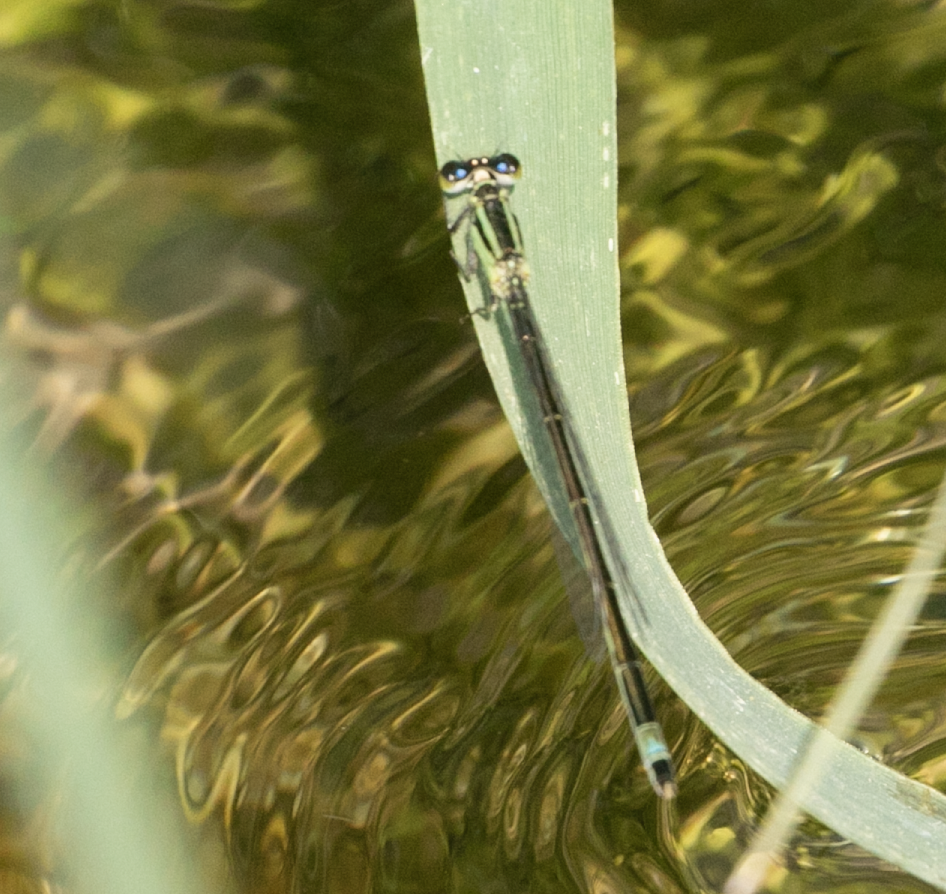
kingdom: Animalia
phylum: Arthropoda
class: Insecta
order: Odonata
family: Coenagrionidae
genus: Ischnura
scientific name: Ischnura elegans
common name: Blue-tailed damselfly
